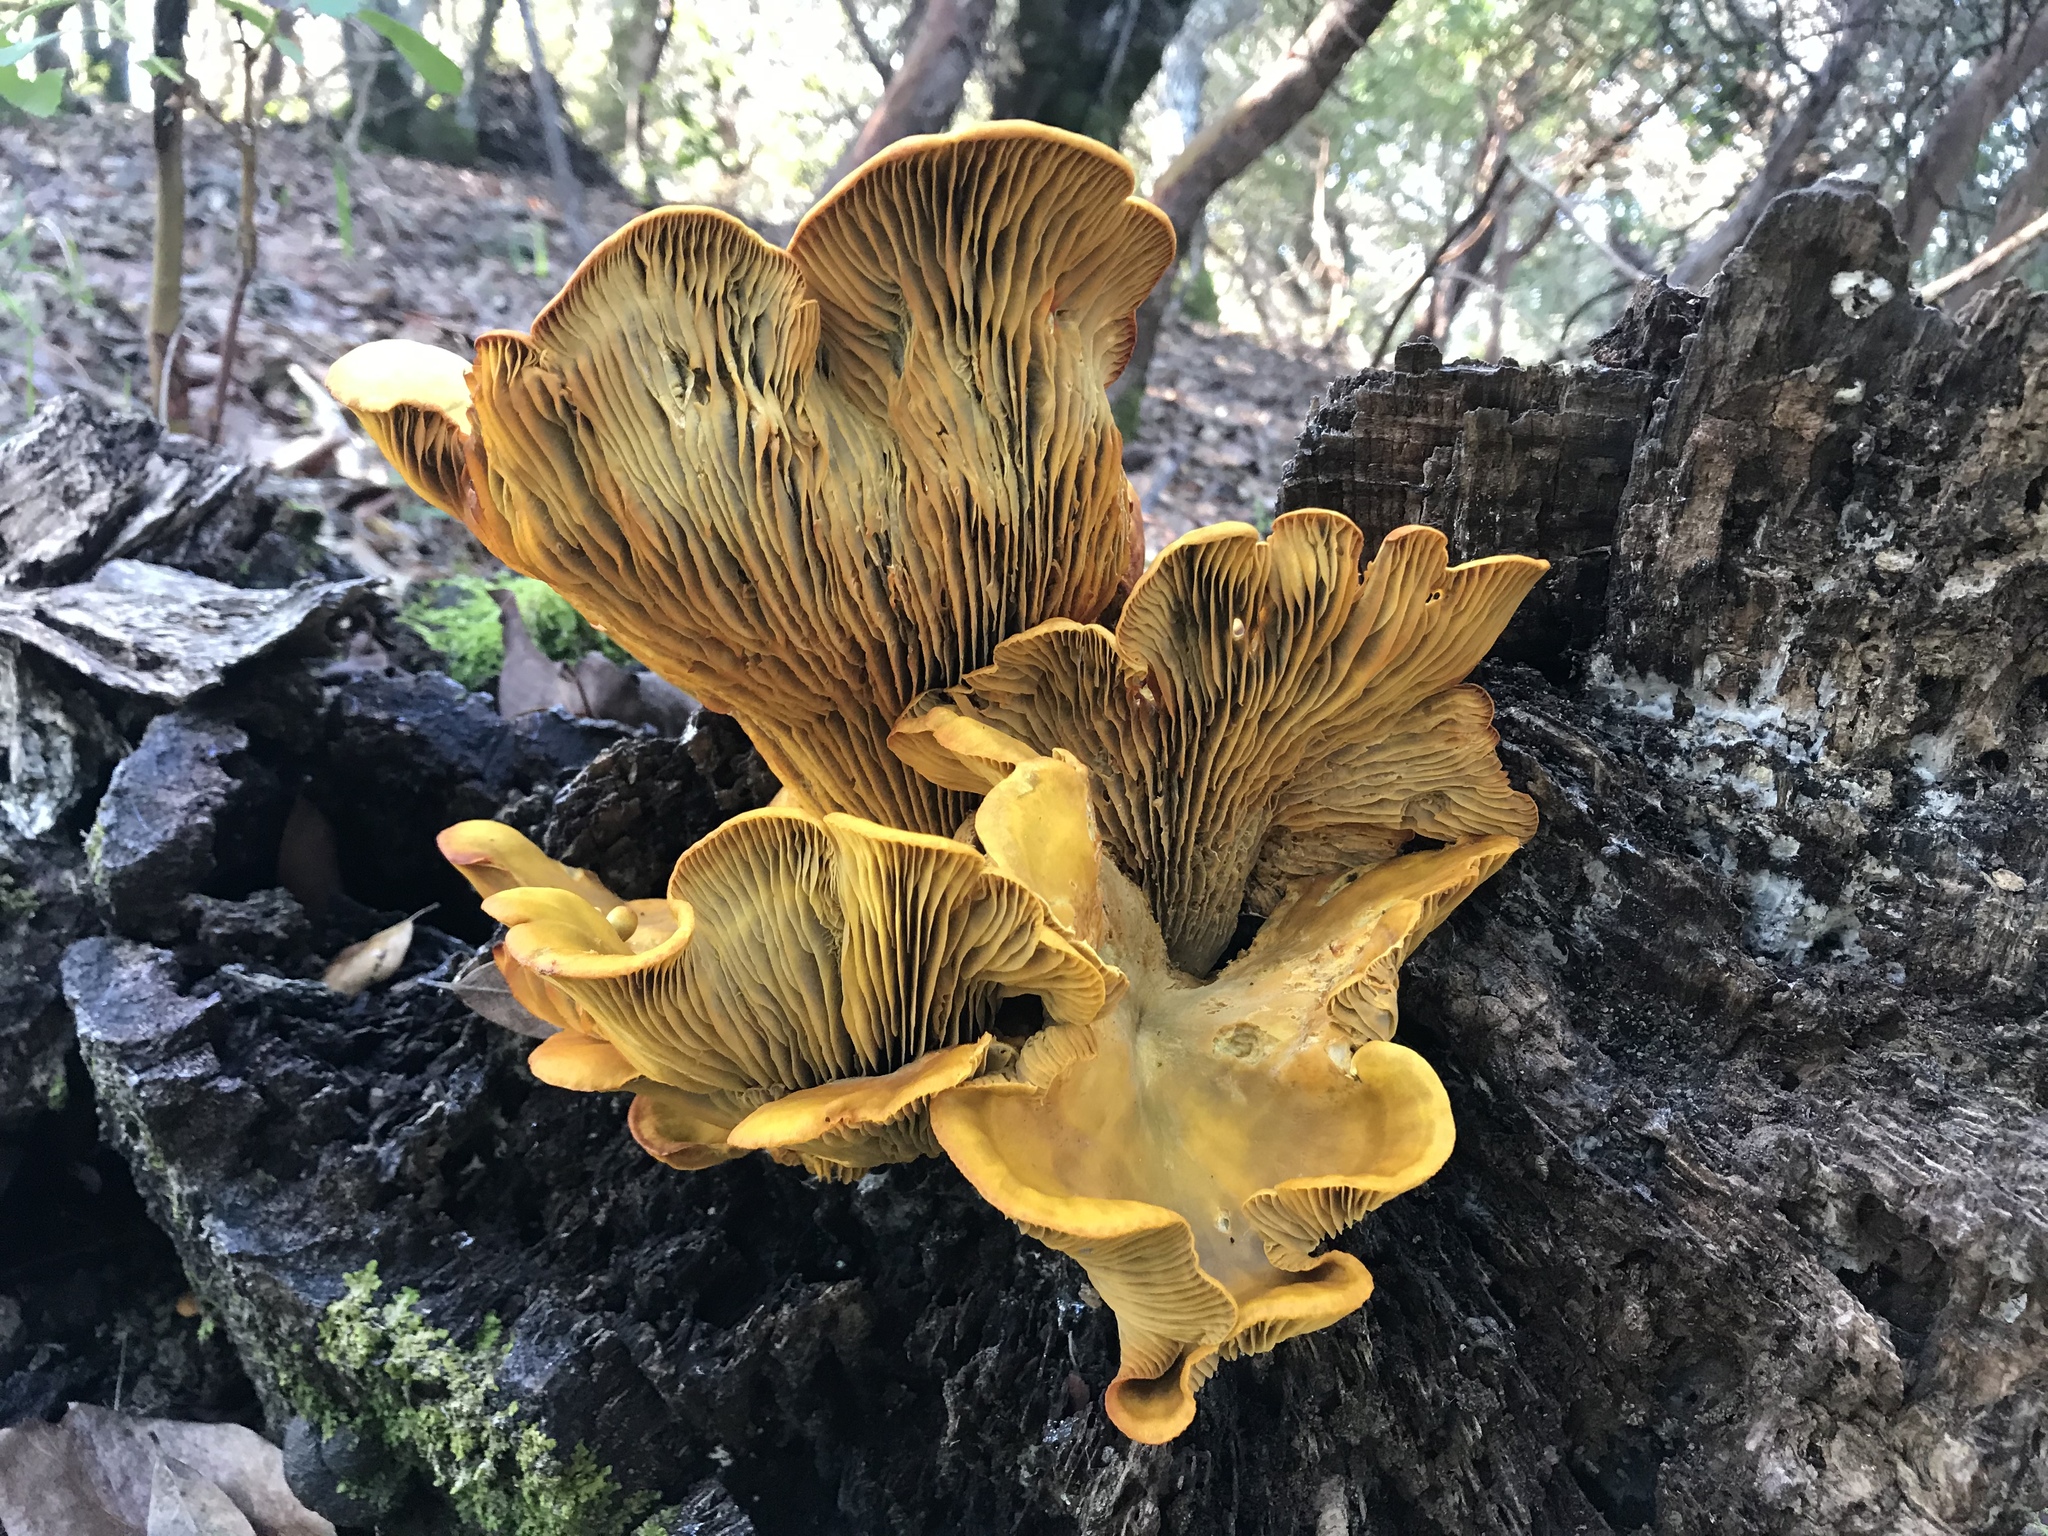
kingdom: Fungi
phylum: Basidiomycota
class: Agaricomycetes
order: Agaricales
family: Omphalotaceae
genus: Omphalotus
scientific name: Omphalotus olivascens
